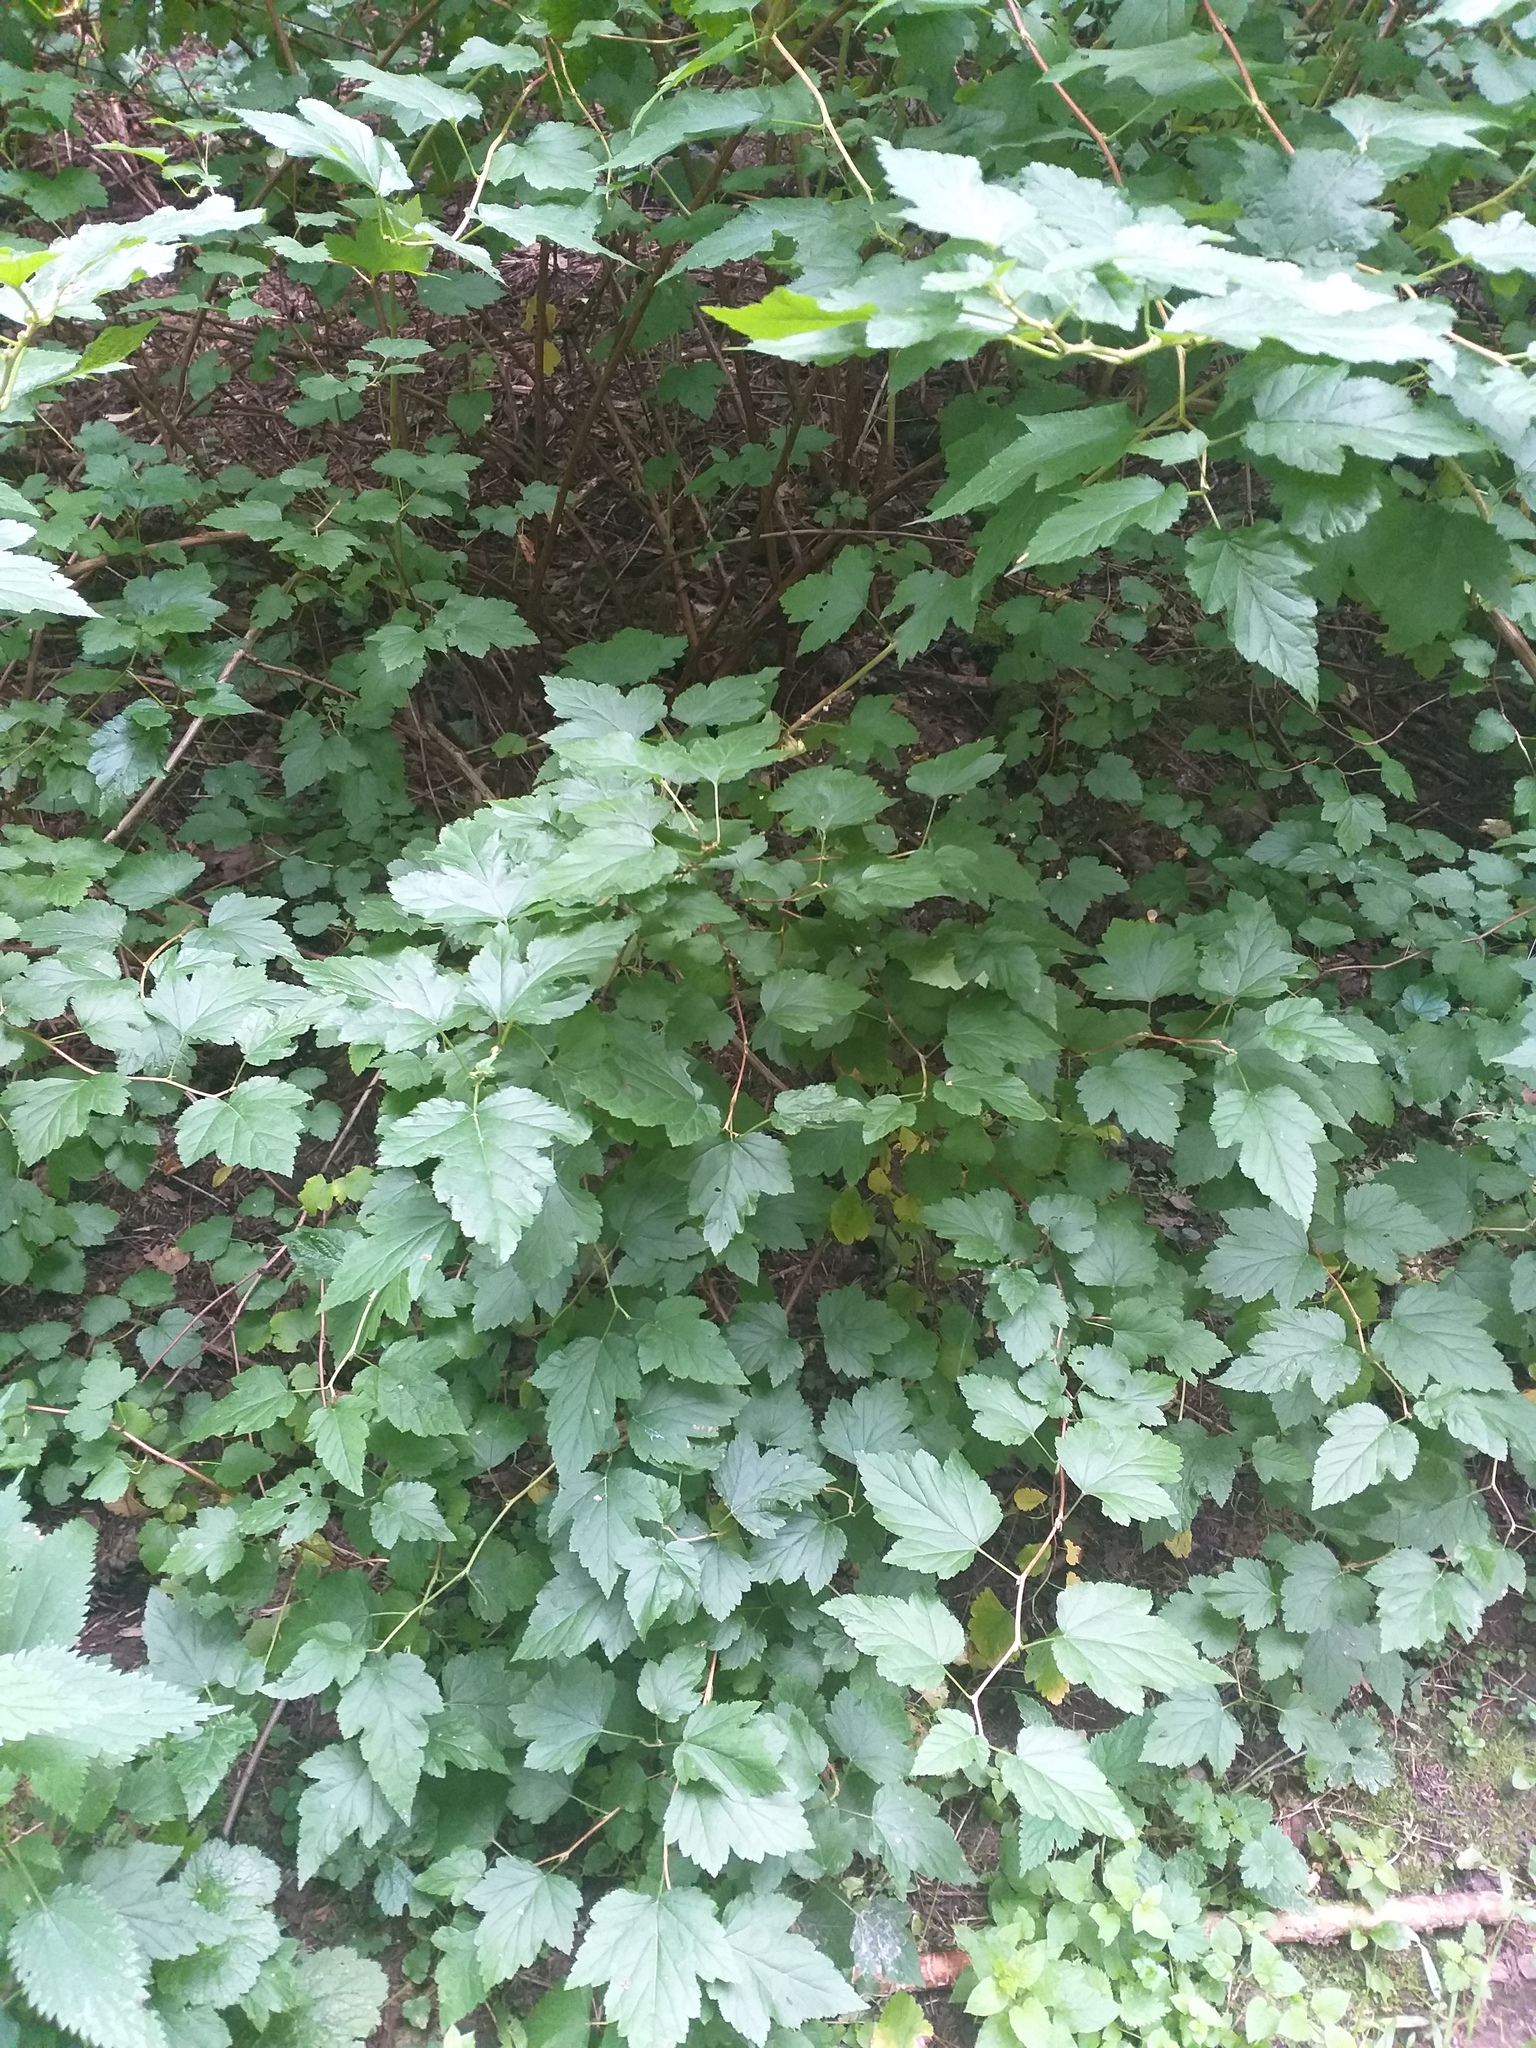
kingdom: Plantae
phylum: Tracheophyta
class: Magnoliopsida
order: Rosales
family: Rosaceae
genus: Physocarpus
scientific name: Physocarpus opulifolius
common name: Ninebark
